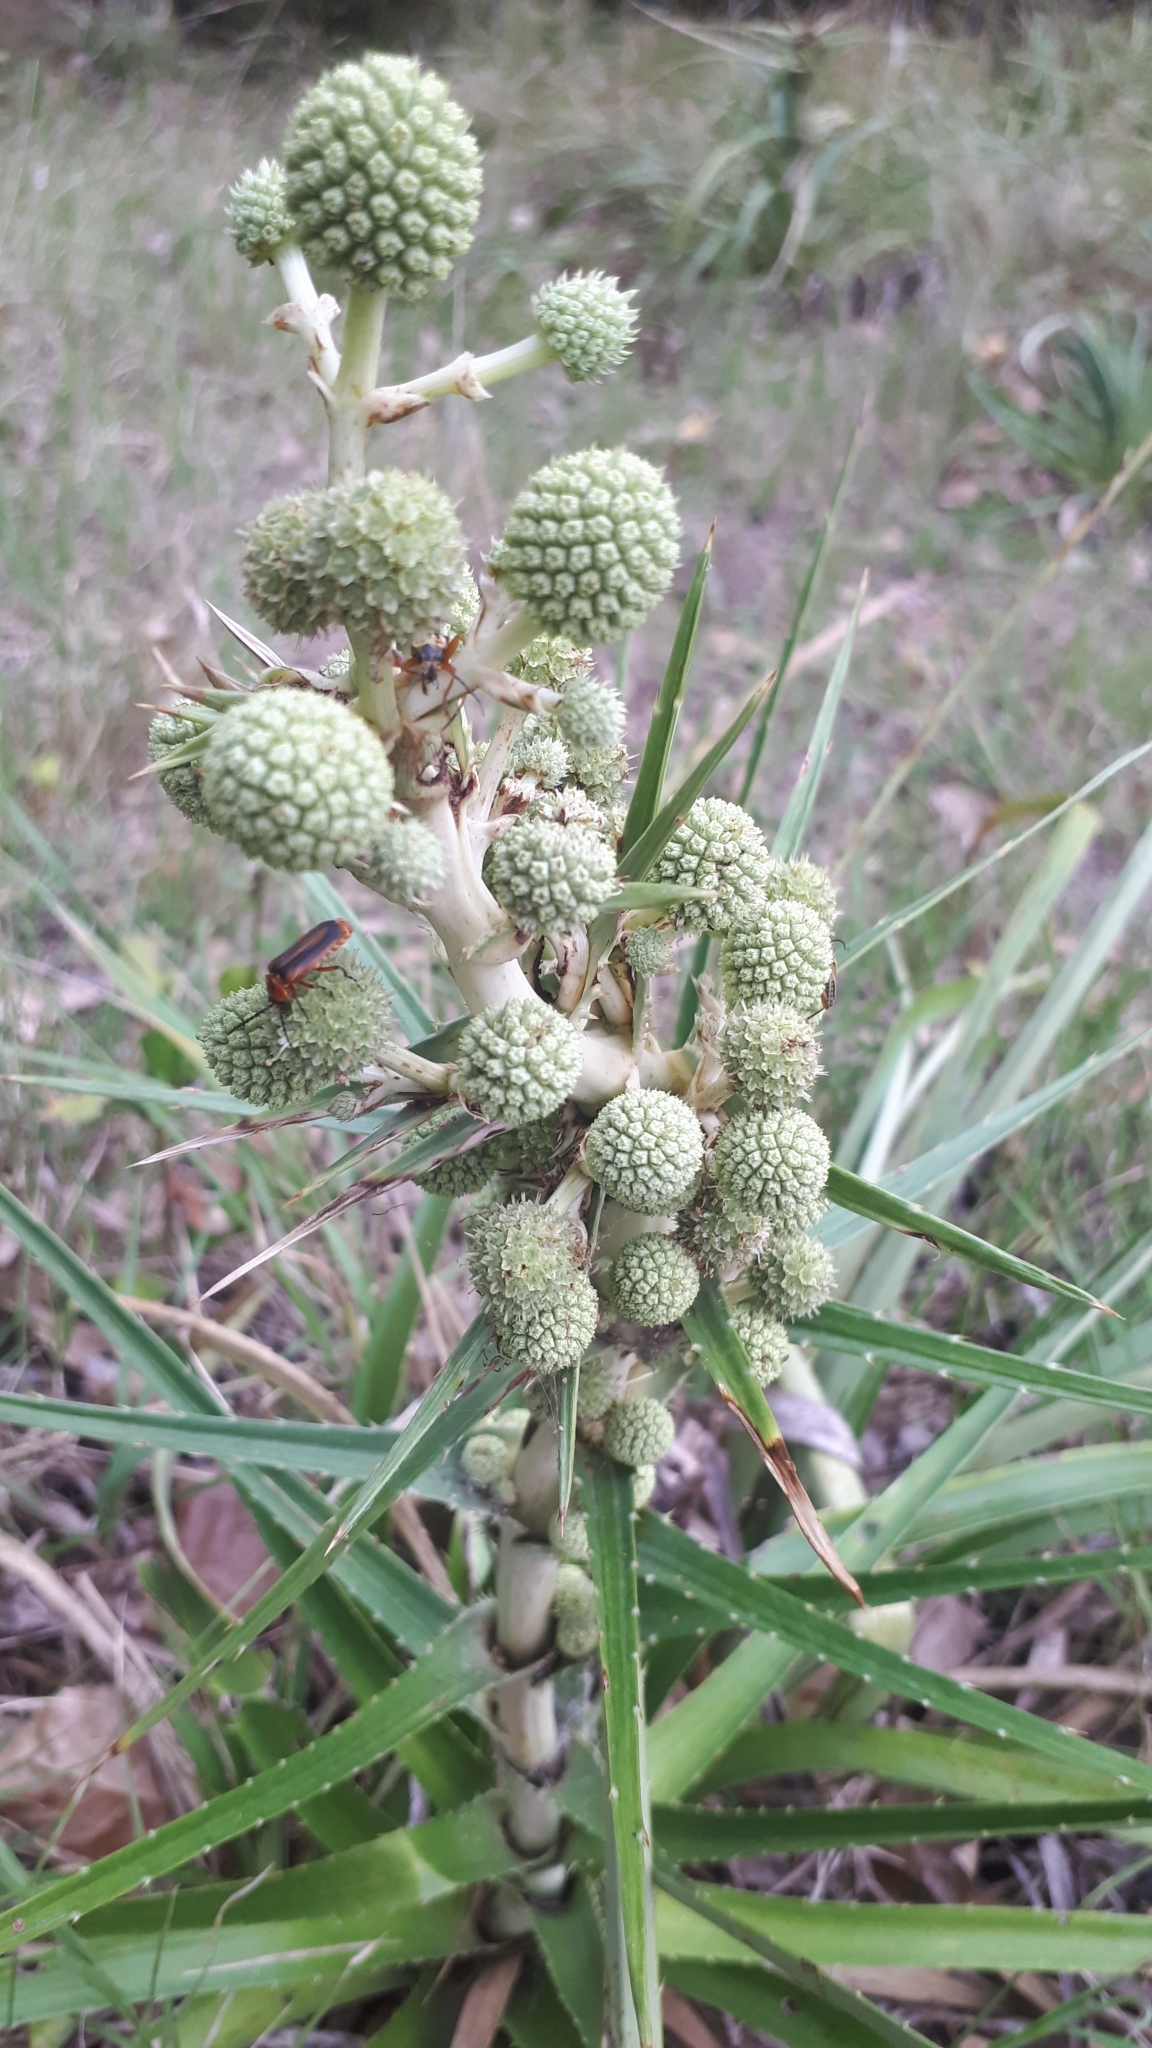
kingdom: Plantae
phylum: Tracheophyta
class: Magnoliopsida
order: Apiales
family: Apiaceae
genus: Eryngium
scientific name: Eryngium humboldtii
